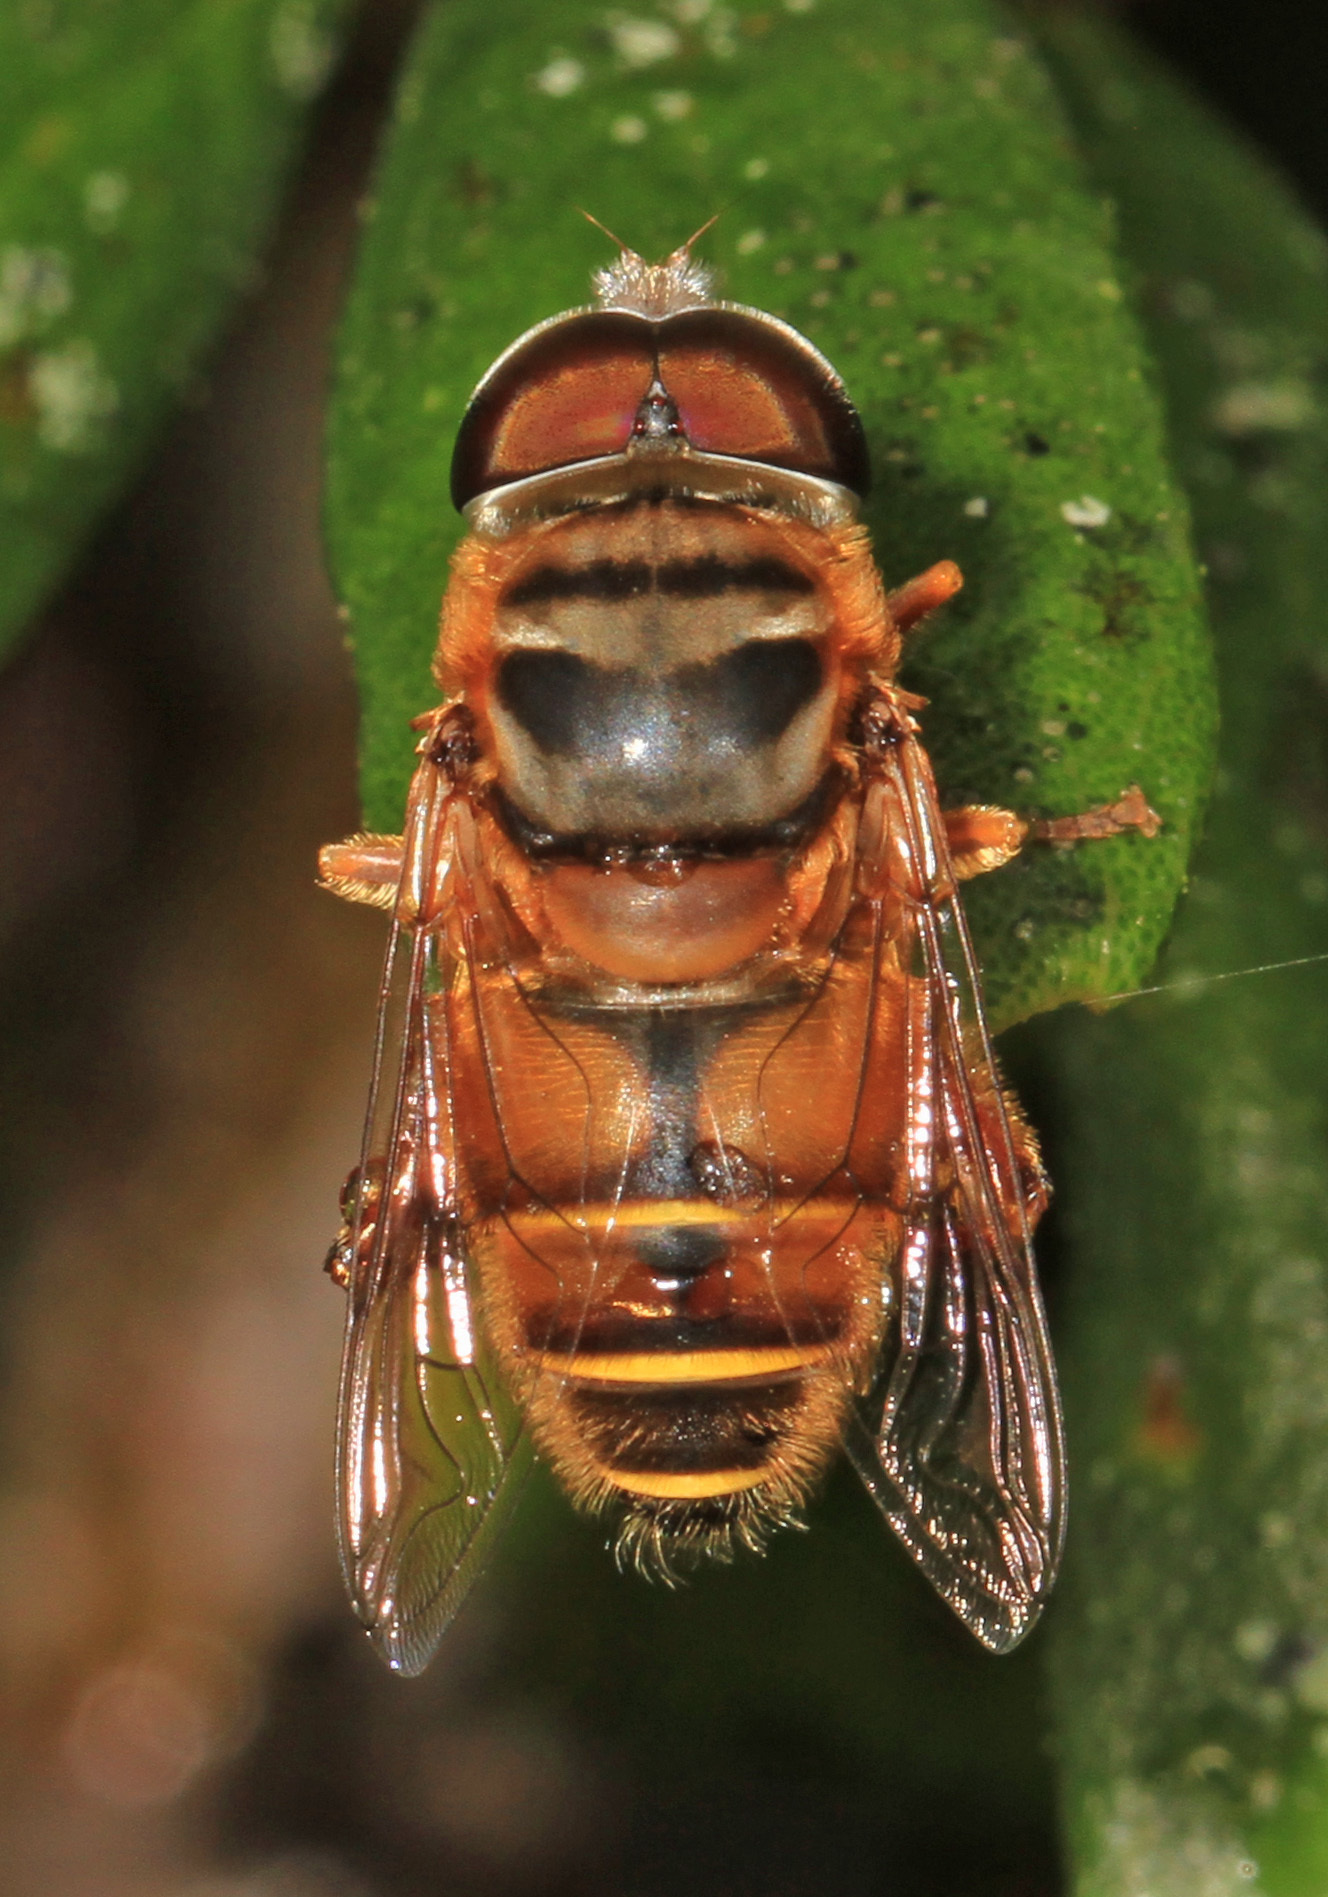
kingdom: Animalia
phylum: Arthropoda
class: Insecta
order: Diptera
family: Syrphidae
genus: Palpada
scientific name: Palpada vinetorum
